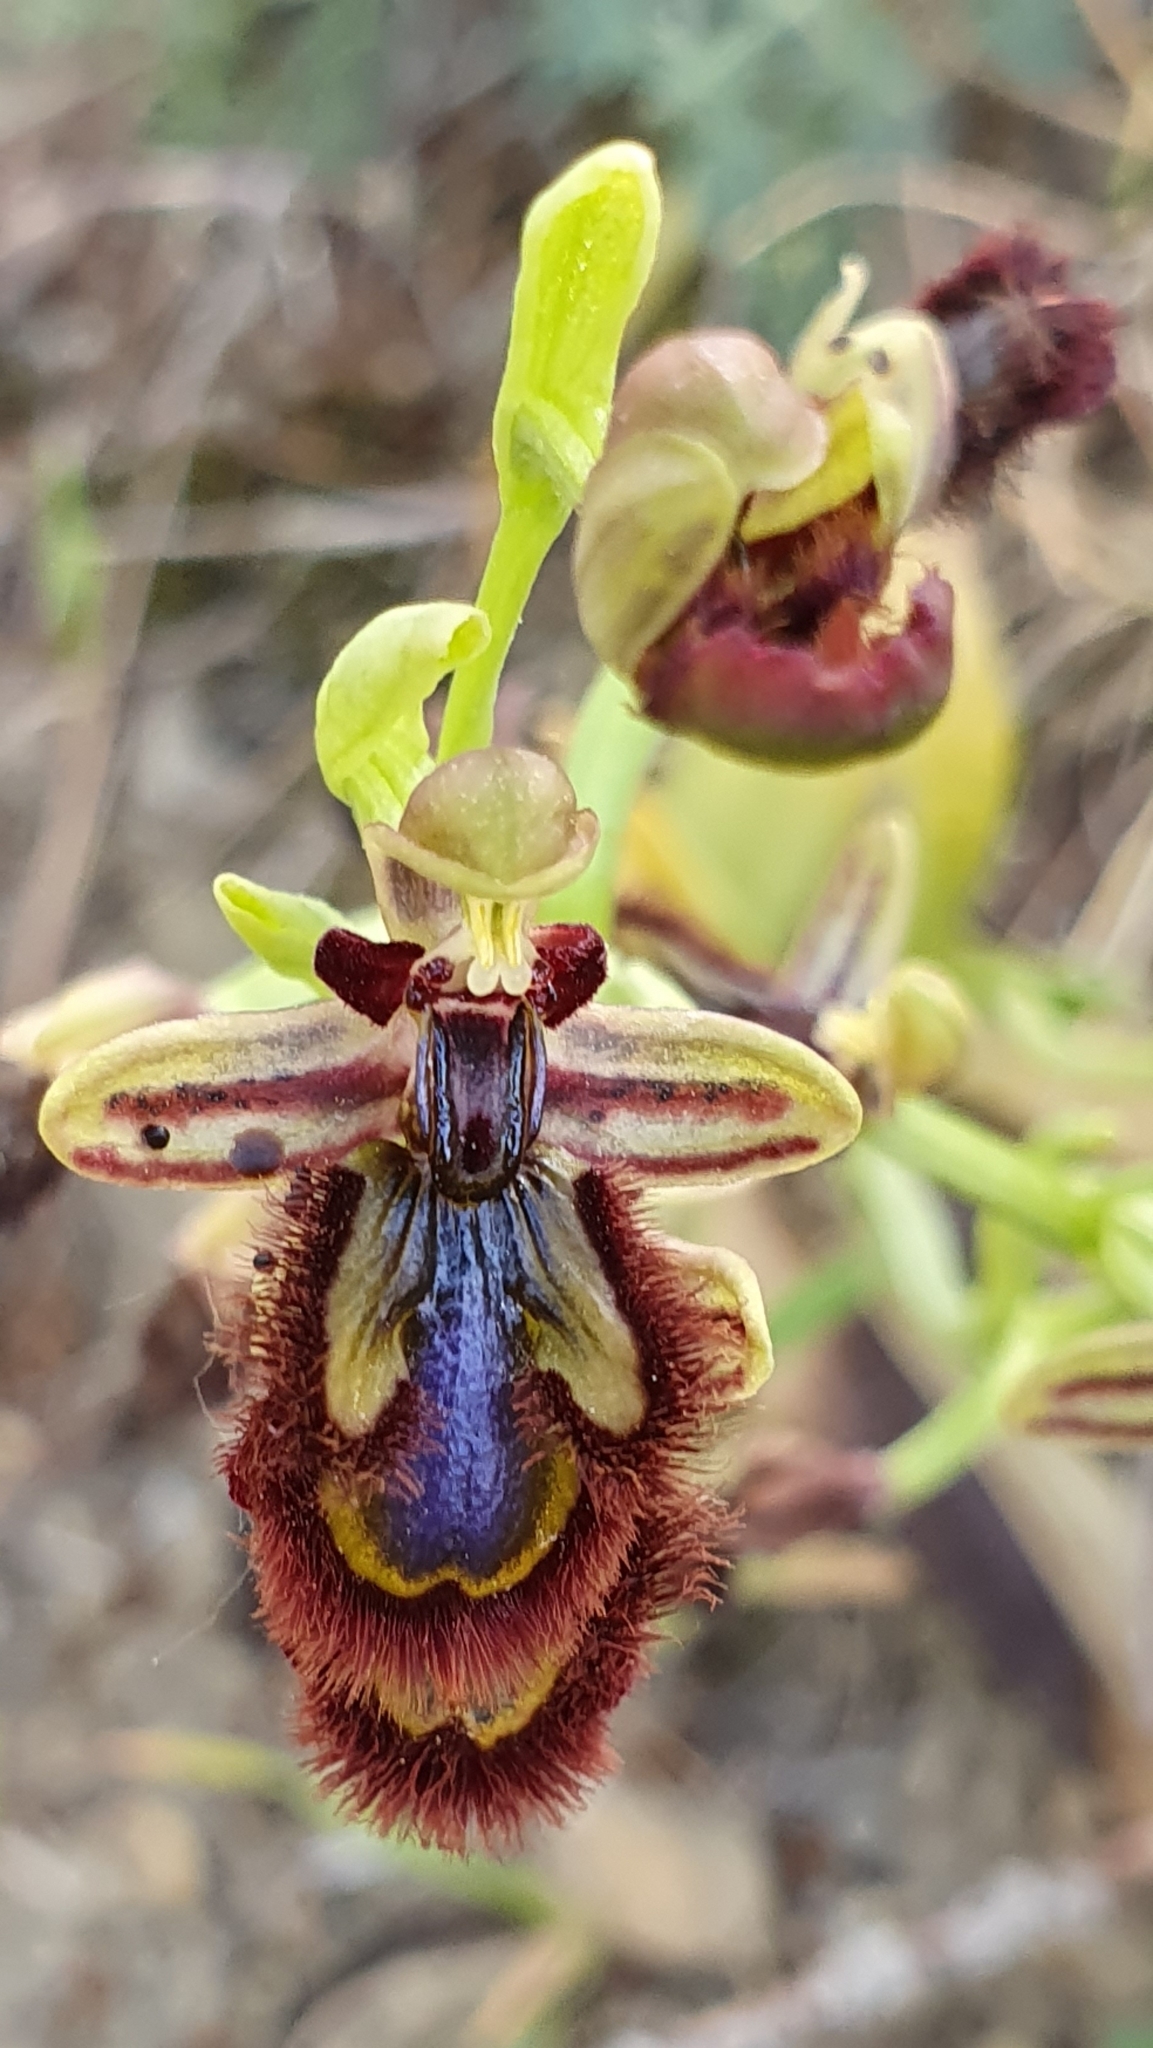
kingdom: Plantae
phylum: Tracheophyta
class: Liliopsida
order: Asparagales
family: Orchidaceae
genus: Ophrys
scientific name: Ophrys speculum
